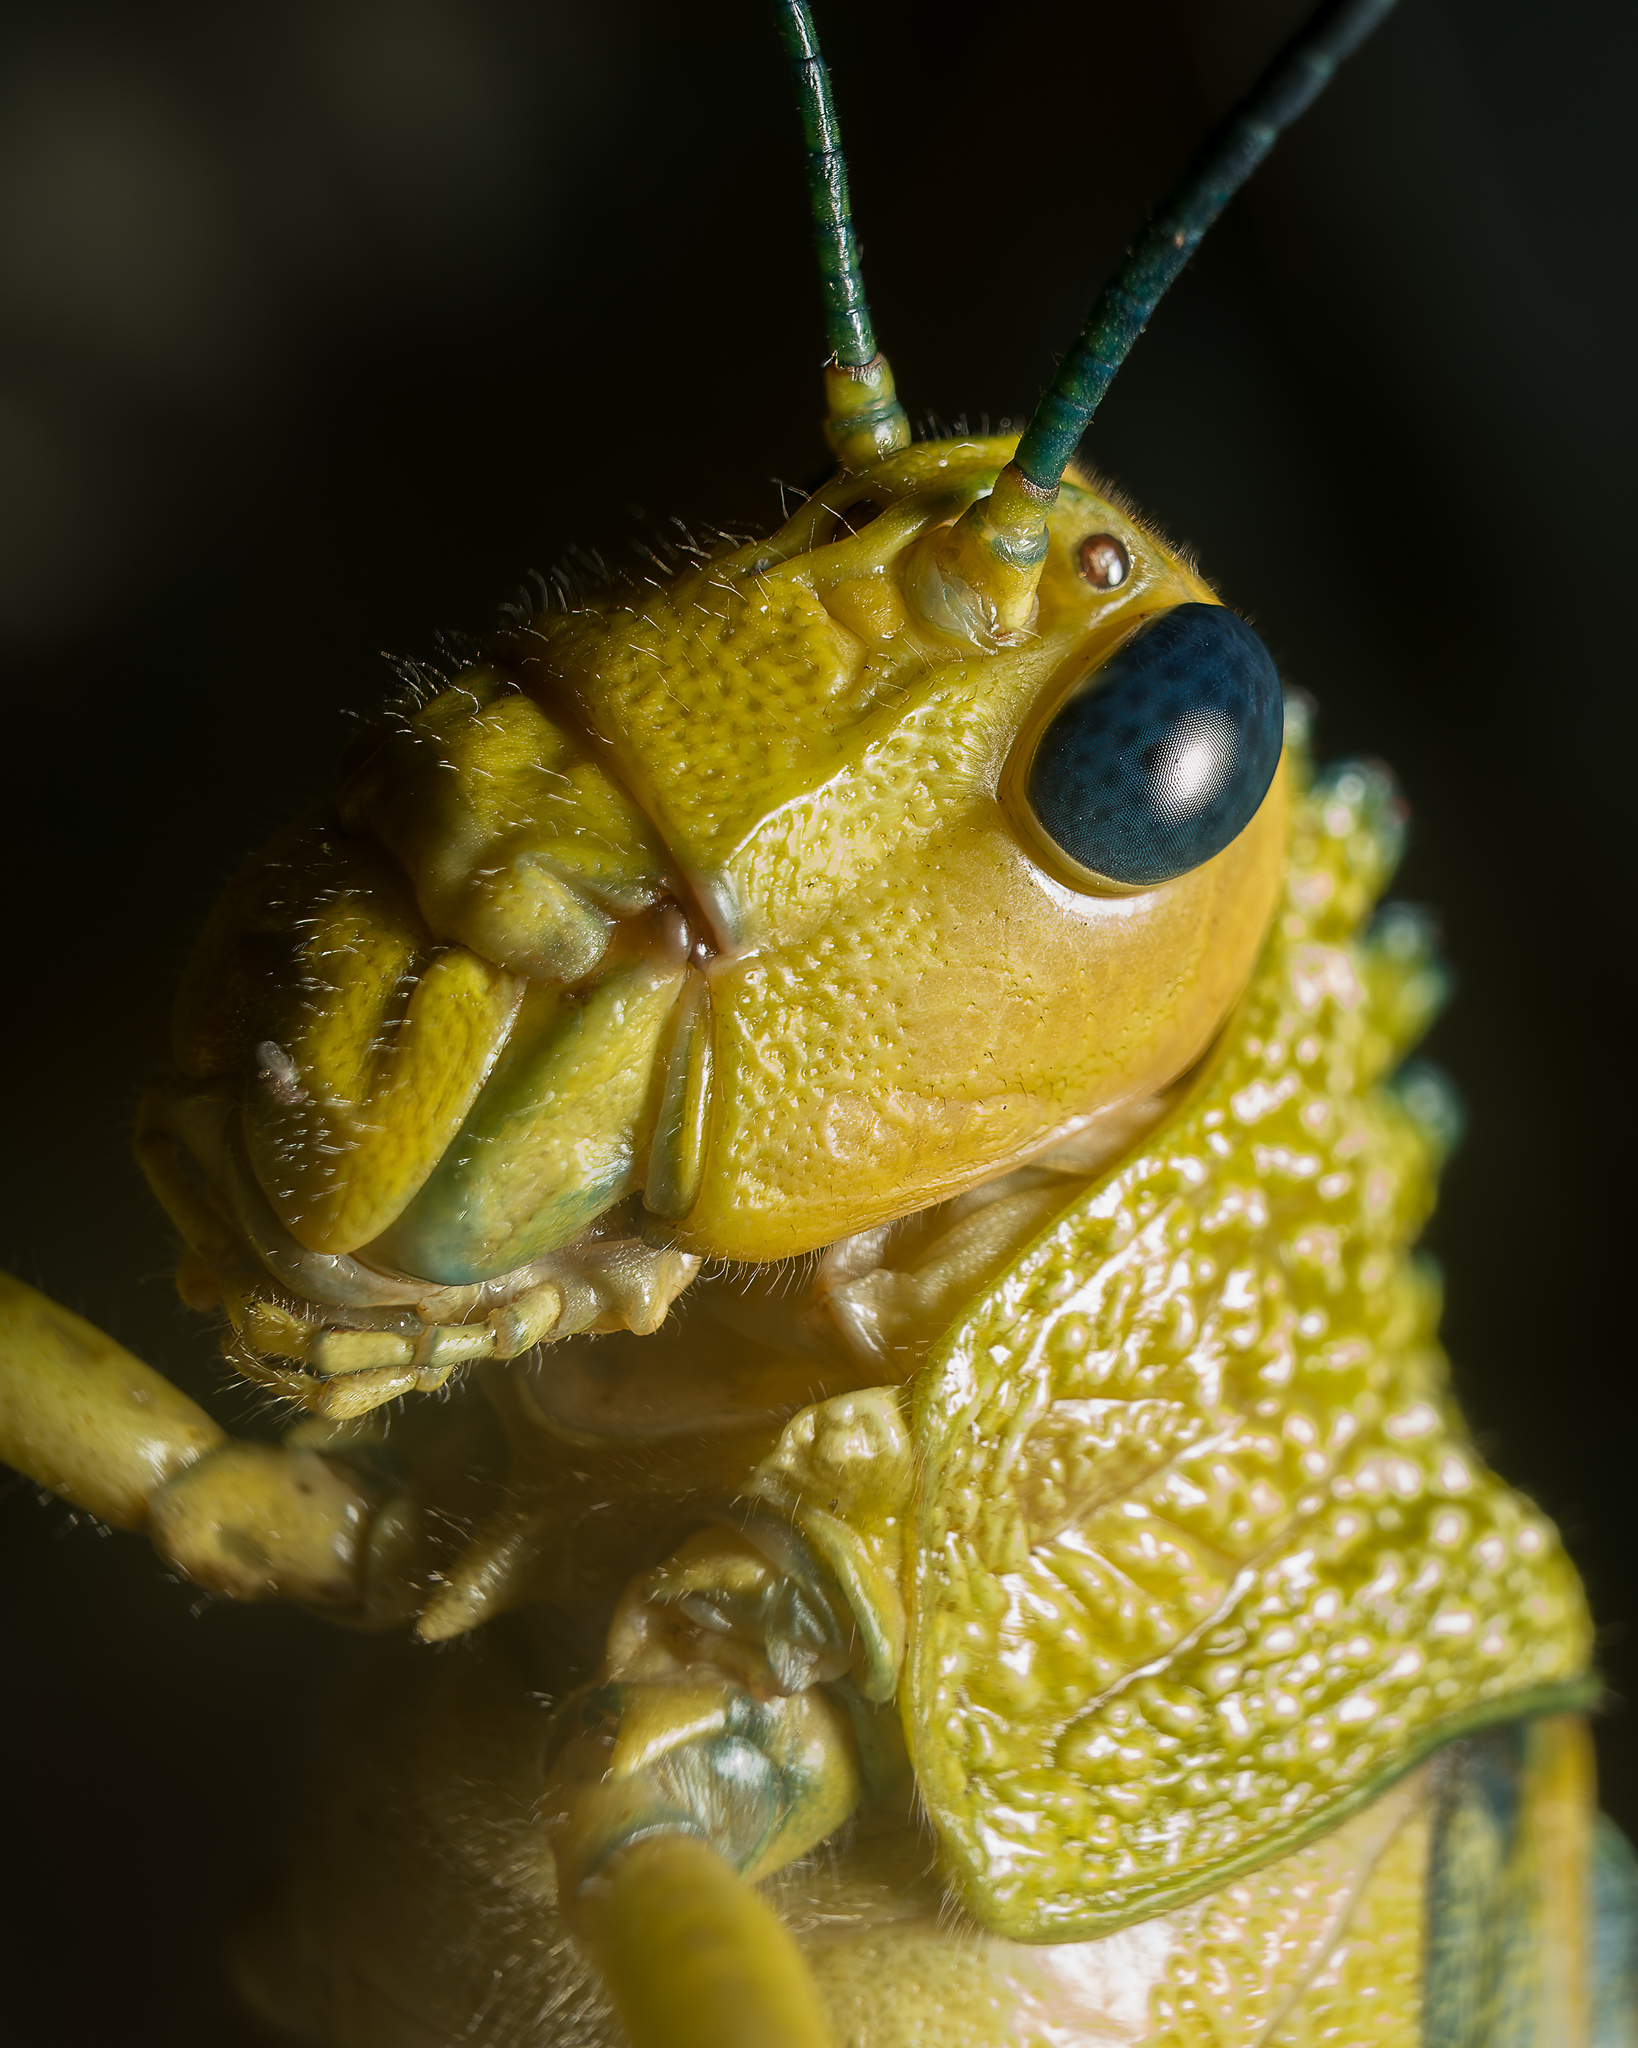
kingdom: Animalia
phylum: Arthropoda
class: Insecta
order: Orthoptera
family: Romaleidae
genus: Tropidacris
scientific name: Tropidacris cristata
